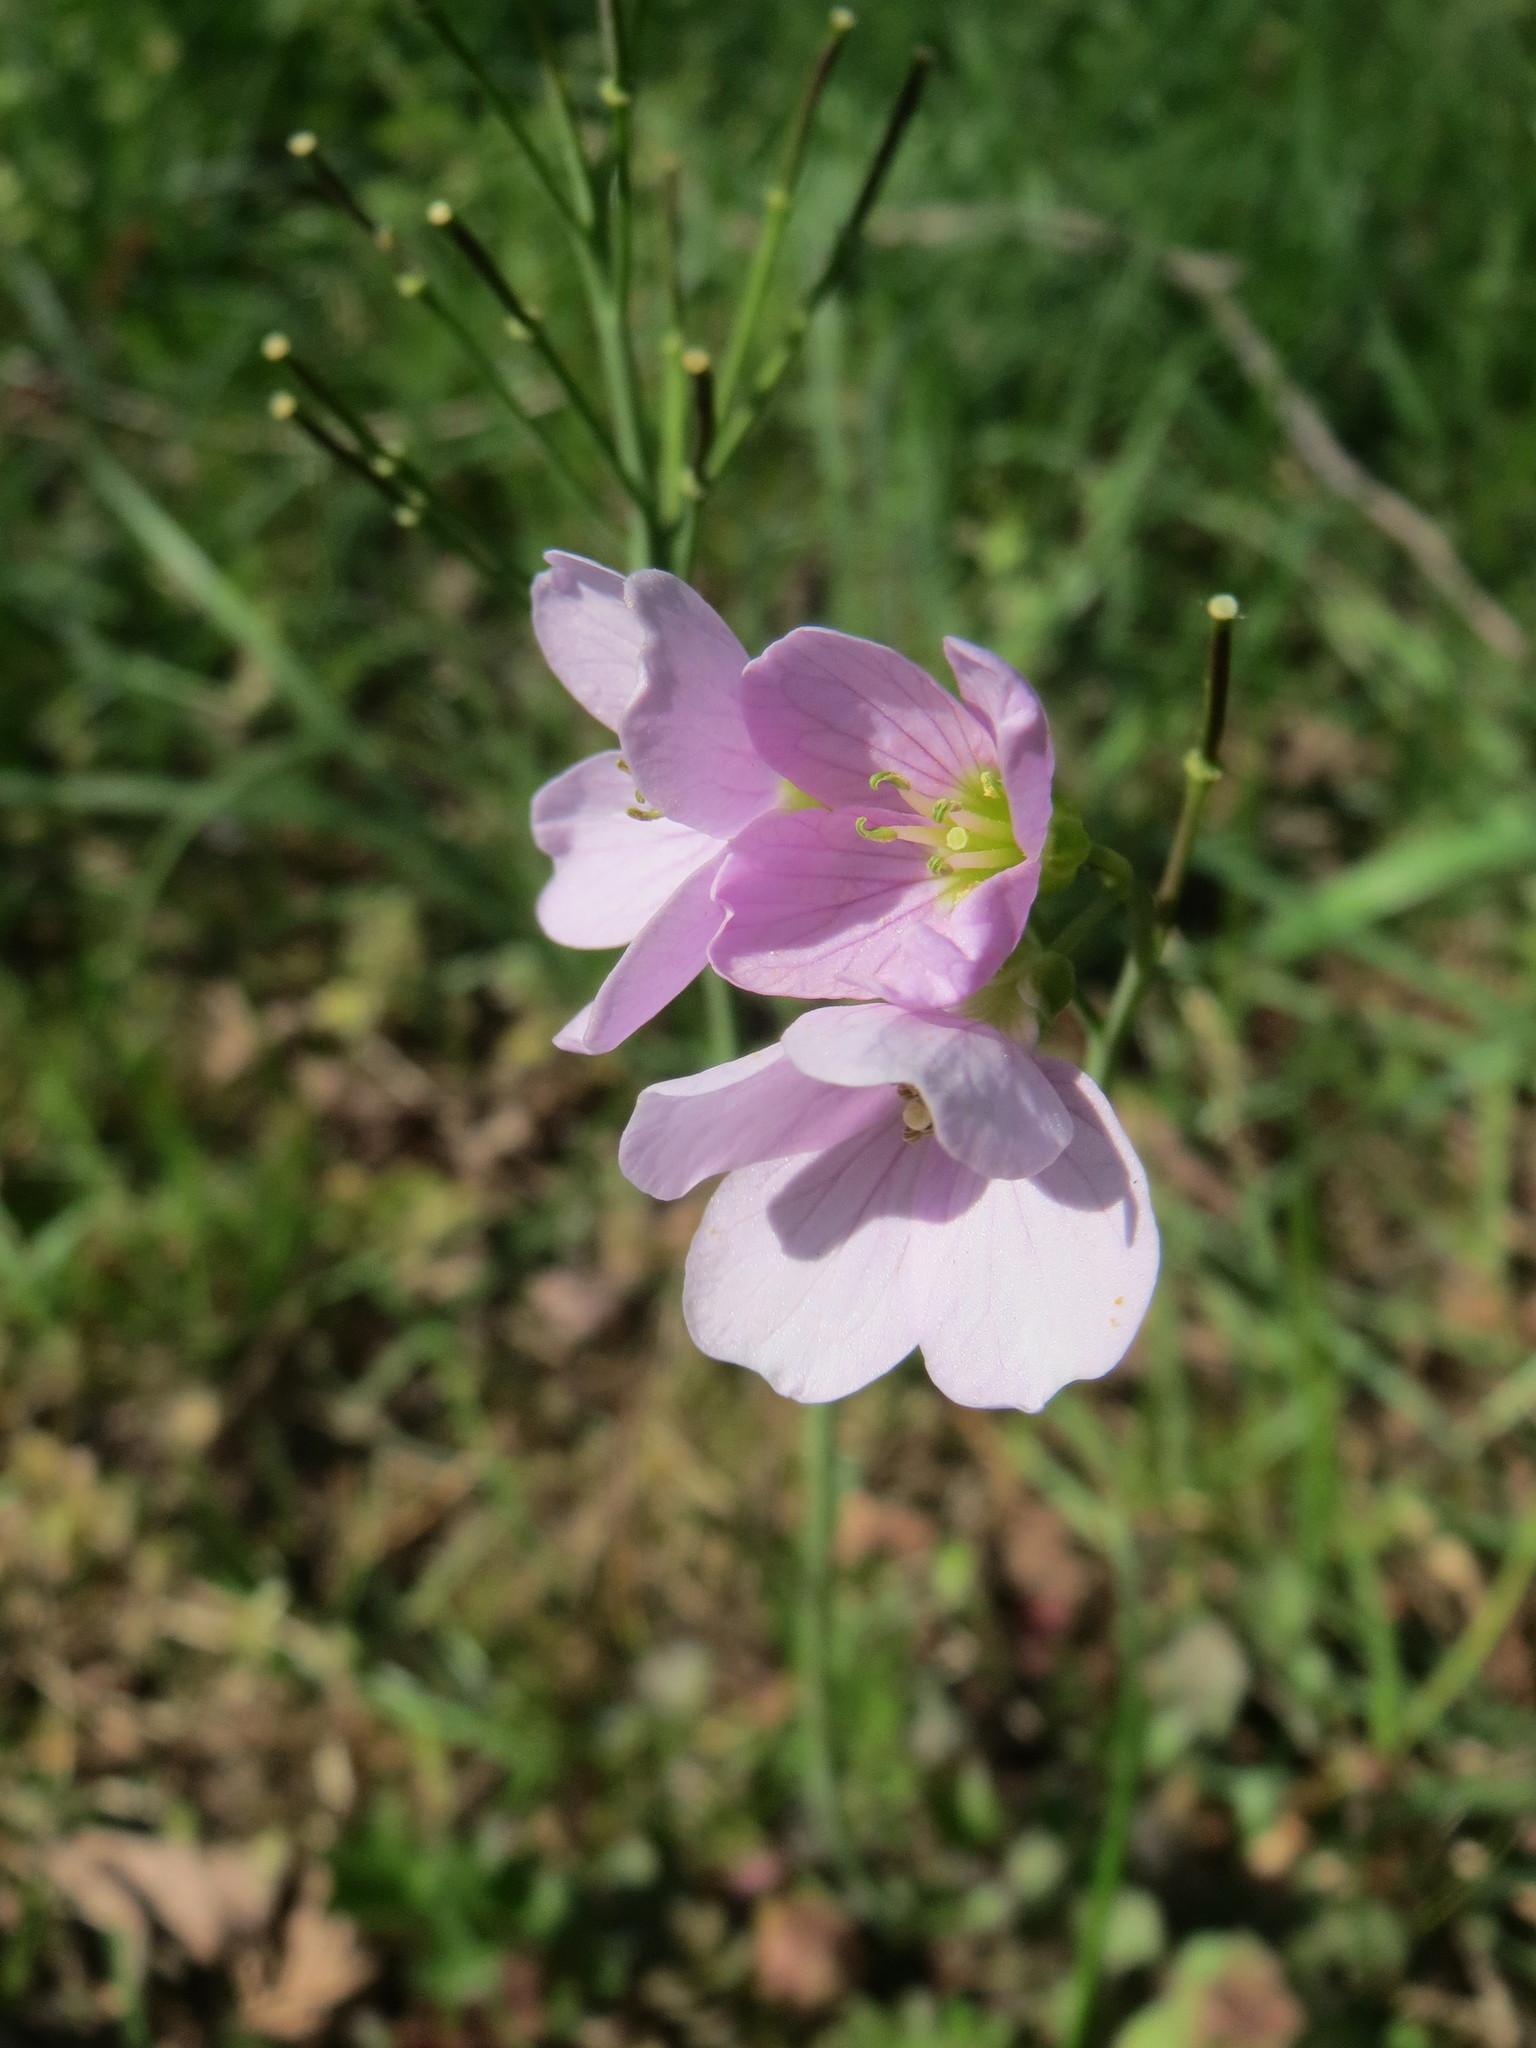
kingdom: Plantae
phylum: Tracheophyta
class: Magnoliopsida
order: Brassicales
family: Brassicaceae
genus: Cardamine
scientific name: Cardamine pratensis
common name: Cuckoo flower
